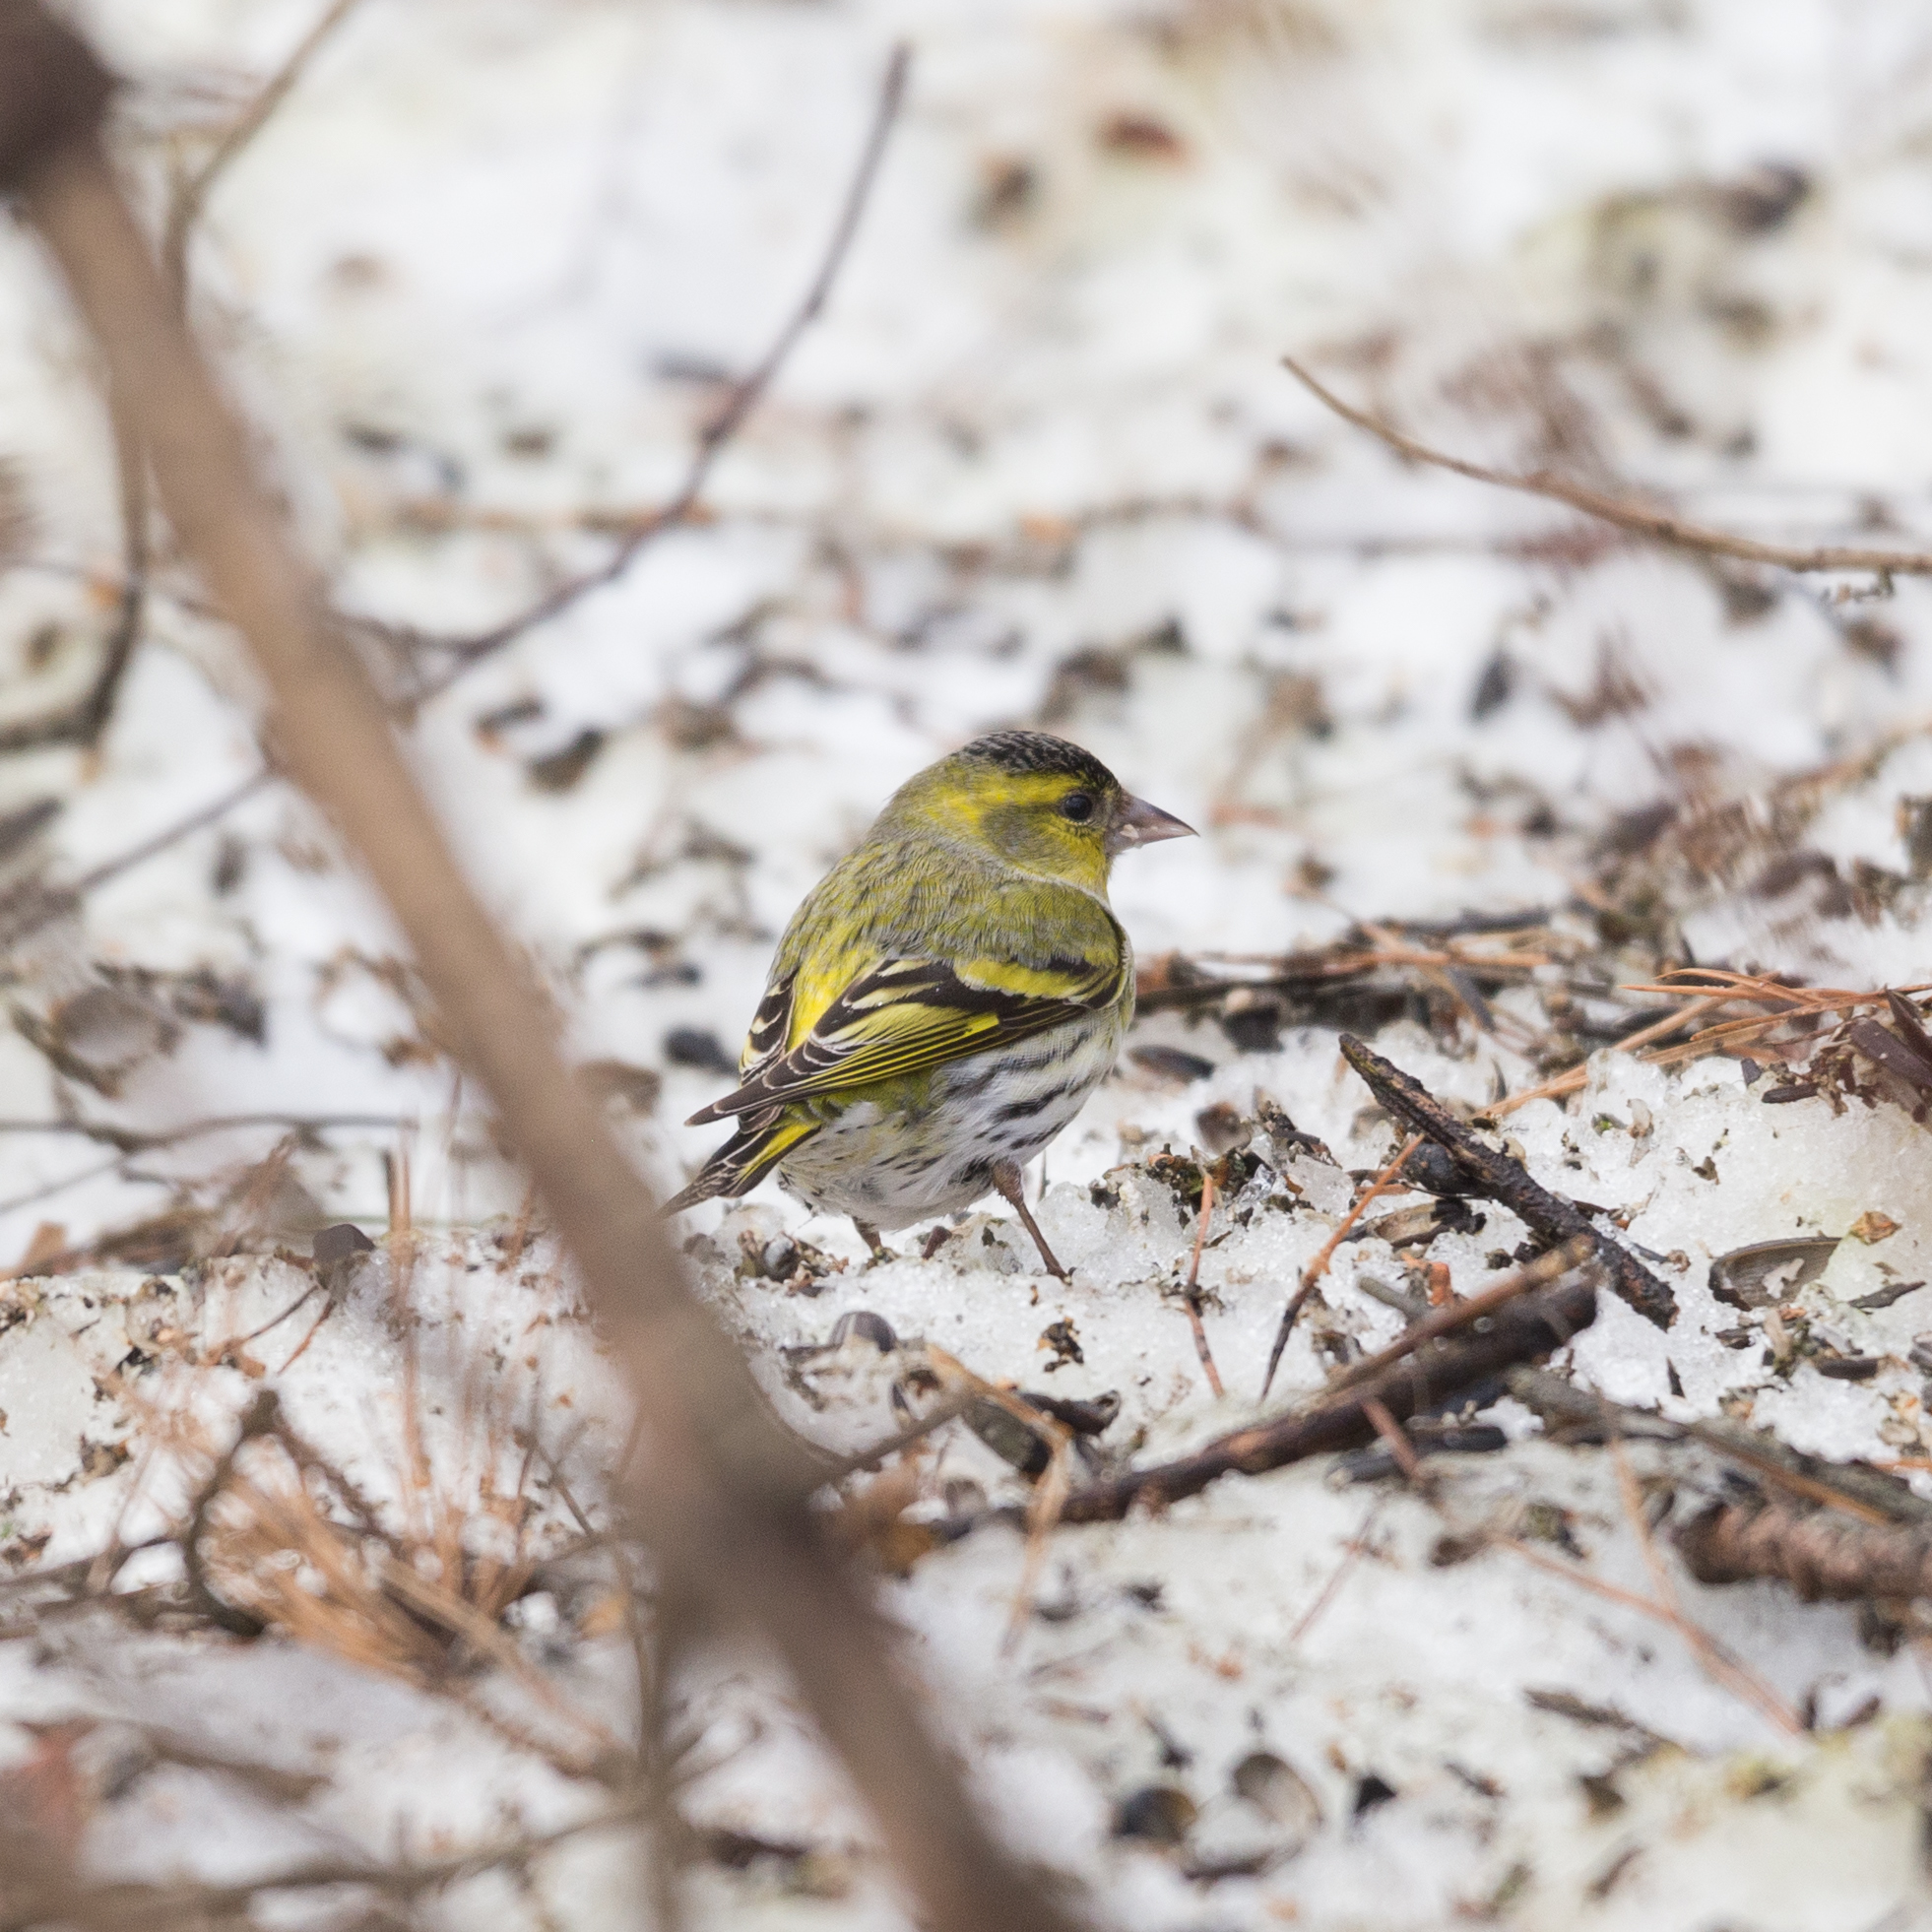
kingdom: Animalia
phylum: Chordata
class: Aves
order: Passeriformes
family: Fringillidae
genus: Spinus
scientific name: Spinus spinus
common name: Eurasian siskin
